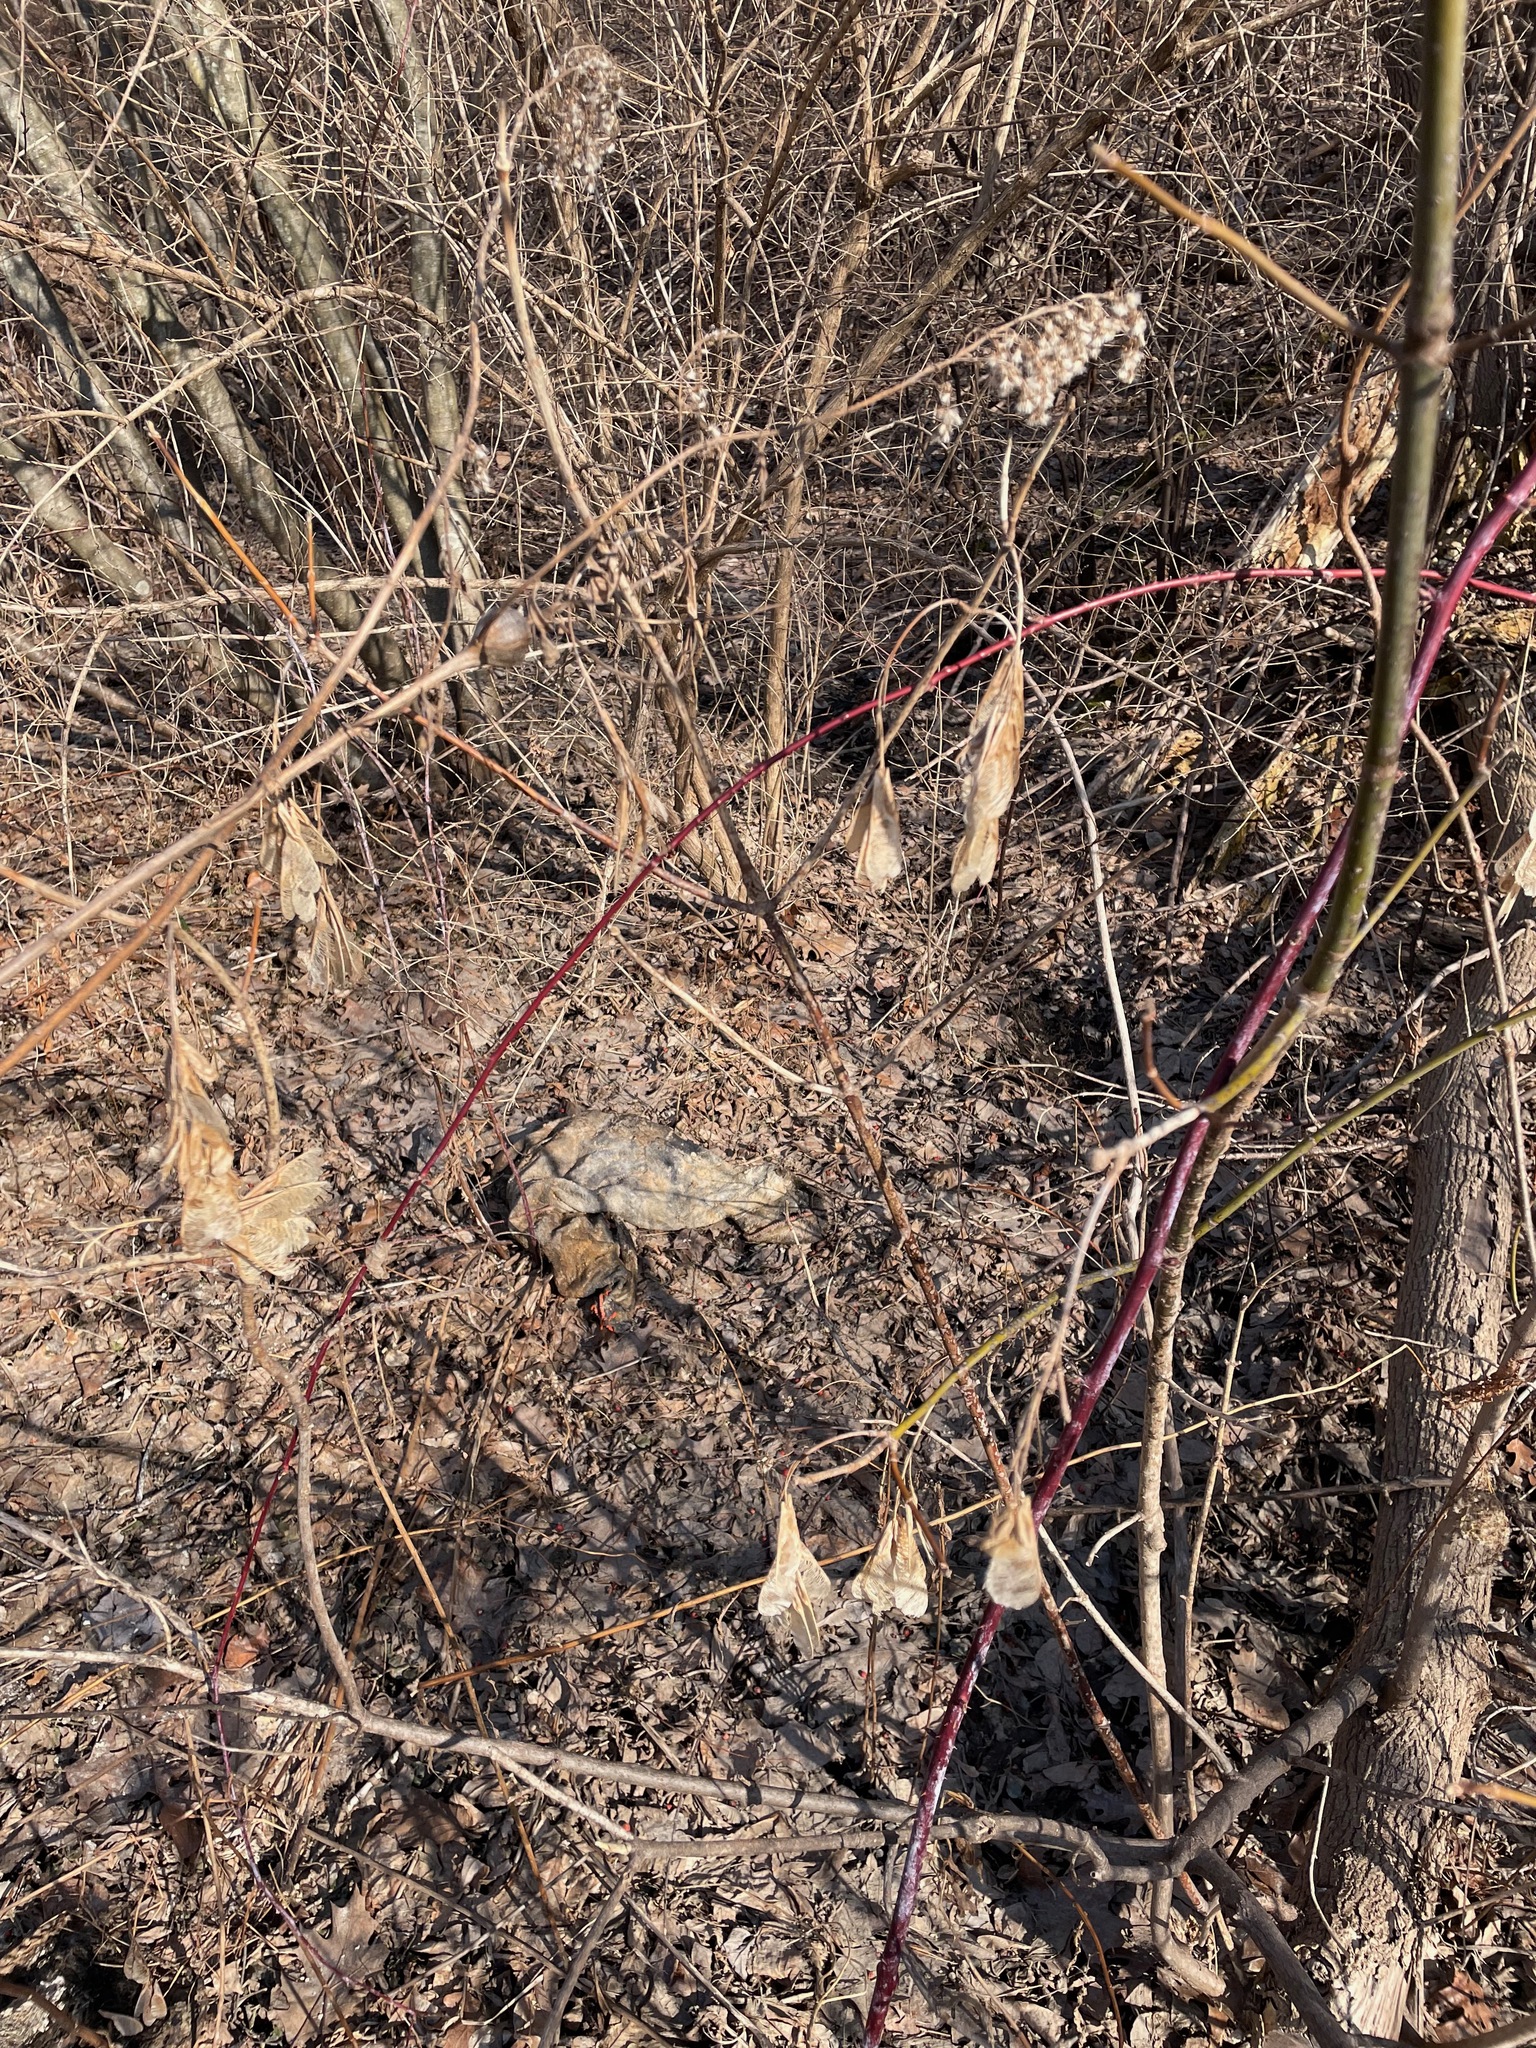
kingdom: Plantae
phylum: Tracheophyta
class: Magnoliopsida
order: Sapindales
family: Sapindaceae
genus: Acer
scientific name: Acer negundo
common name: Ashleaf maple
